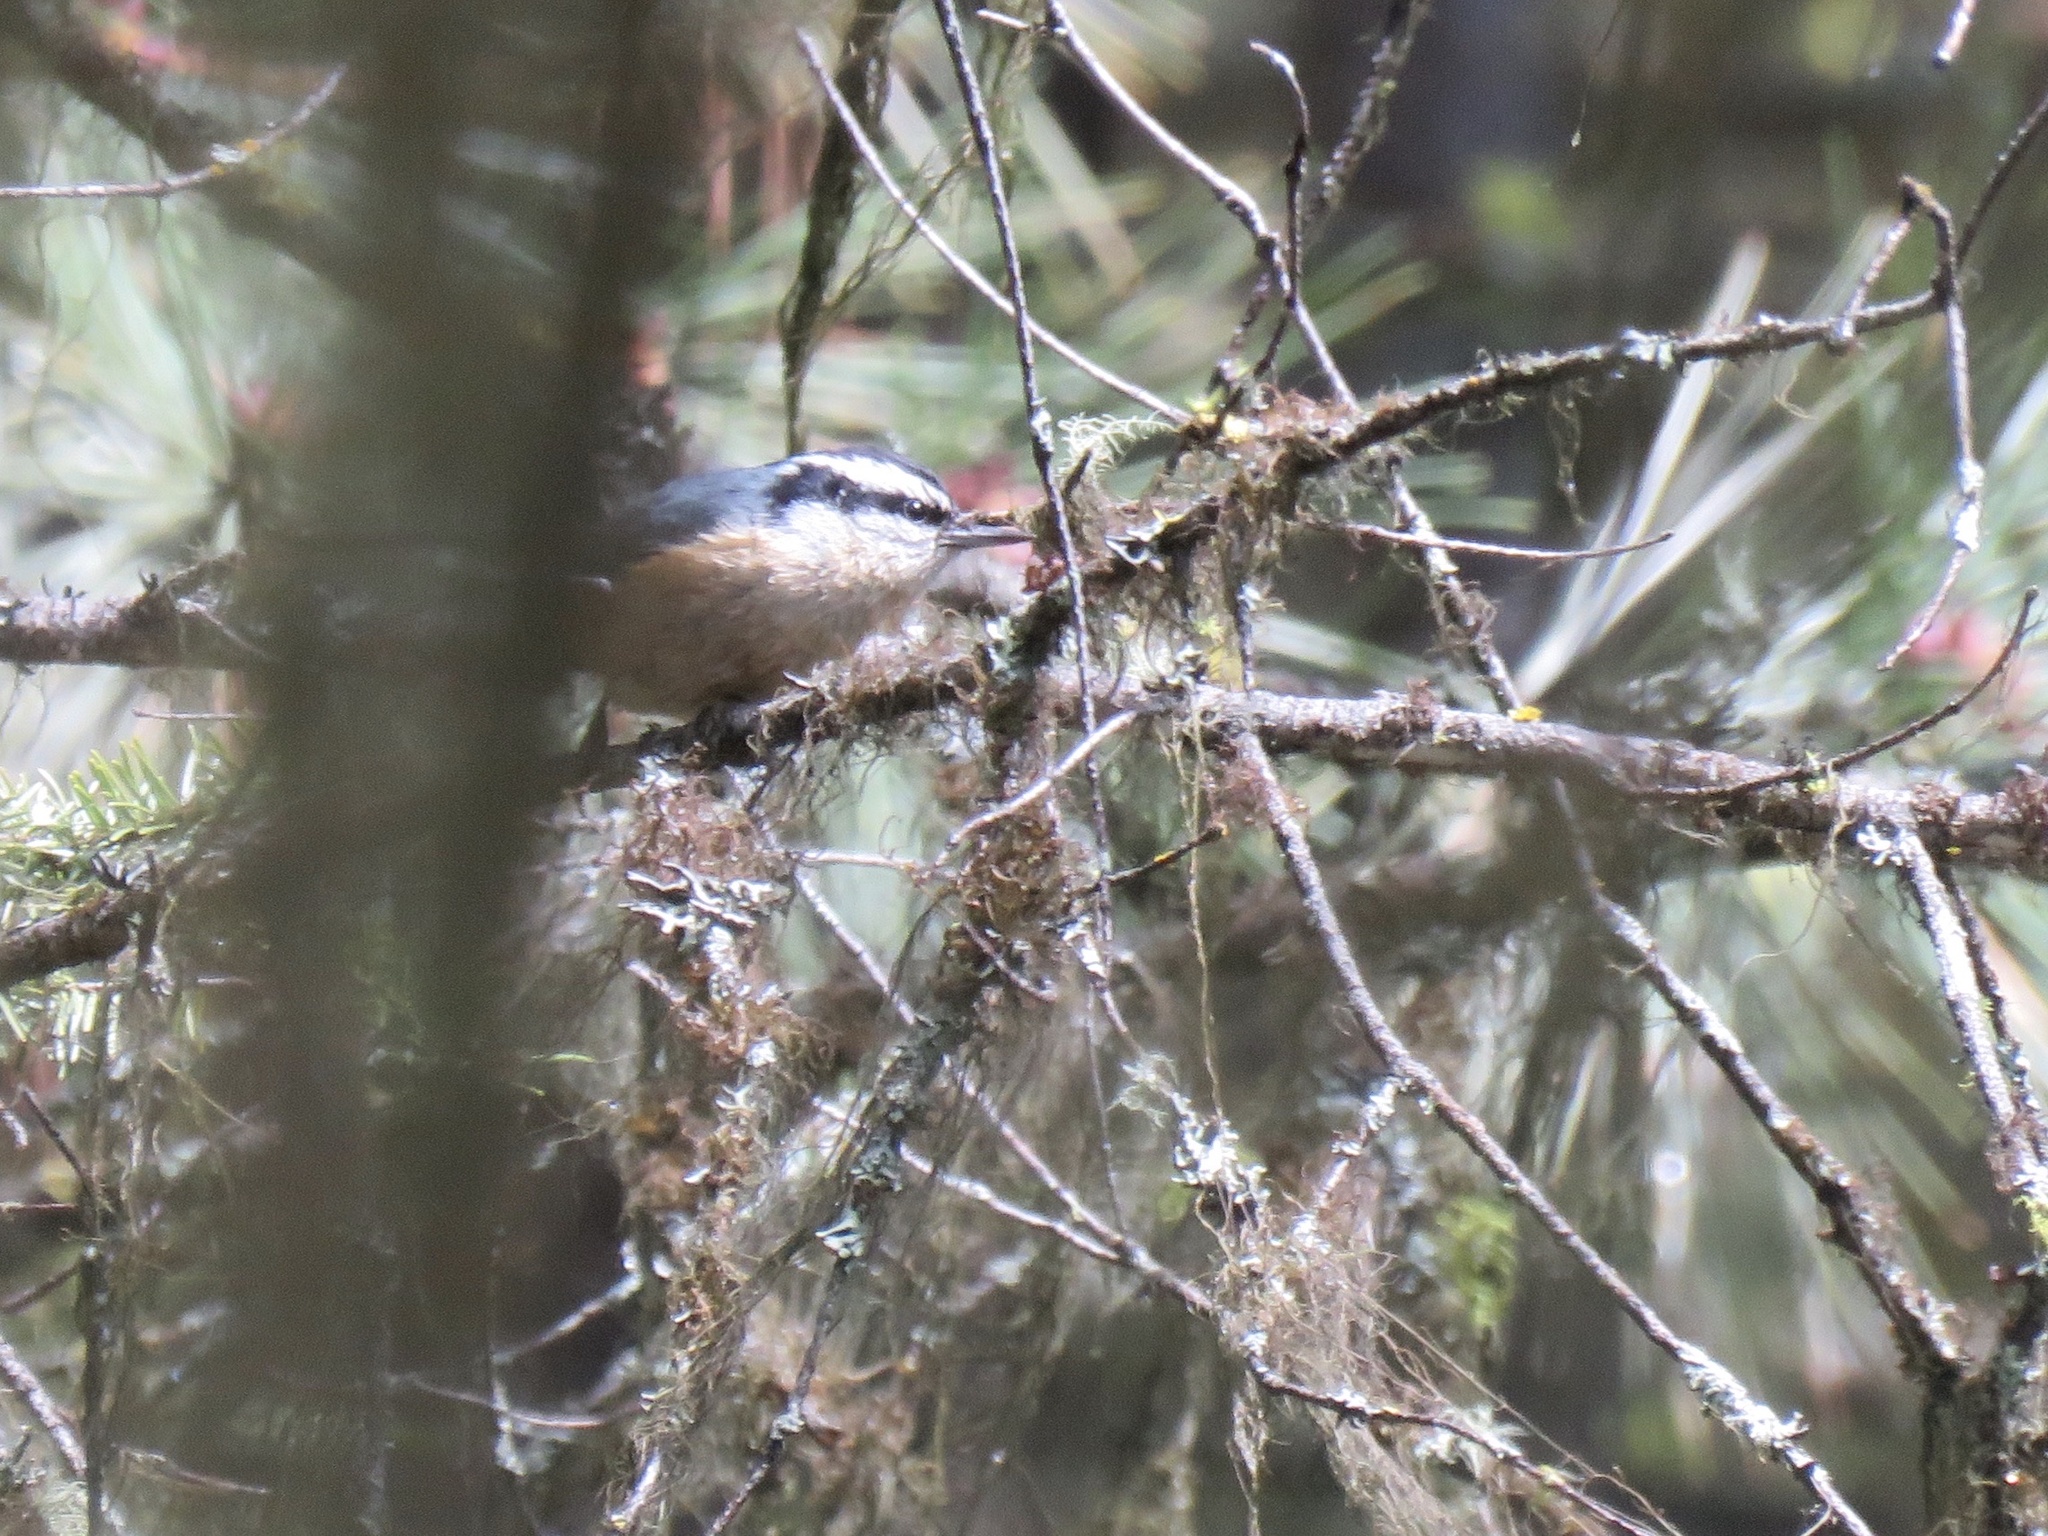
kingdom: Animalia
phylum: Chordata
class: Aves
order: Passeriformes
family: Sittidae
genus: Sitta
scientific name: Sitta canadensis
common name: Red-breasted nuthatch
